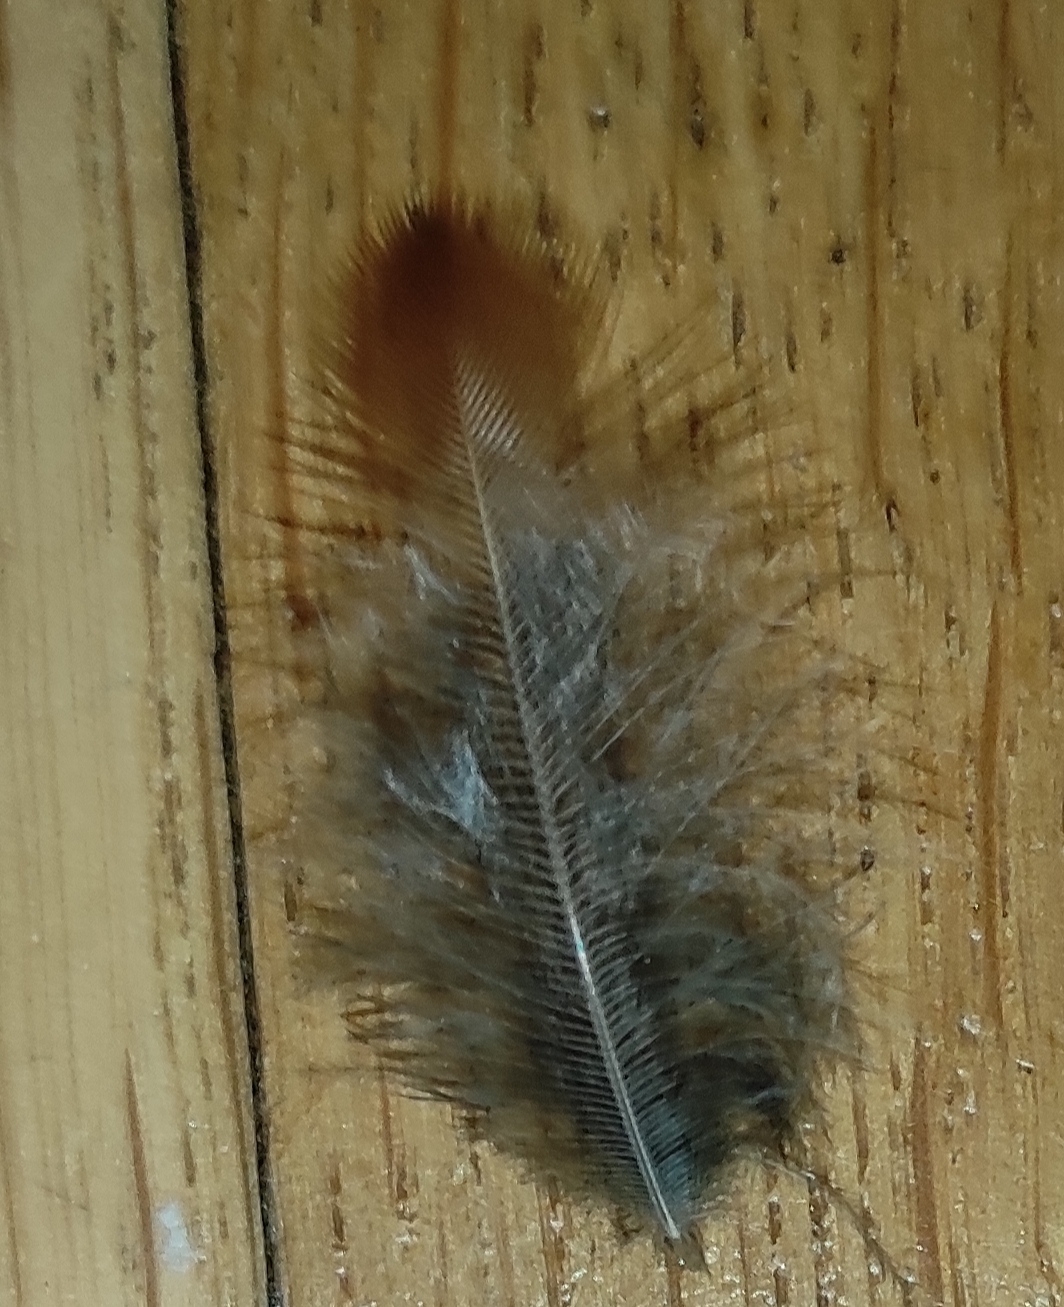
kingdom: Animalia
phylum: Chordata
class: Aves
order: Passeriformes
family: Turdidae
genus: Turdus
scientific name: Turdus iliacus
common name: Redwing
